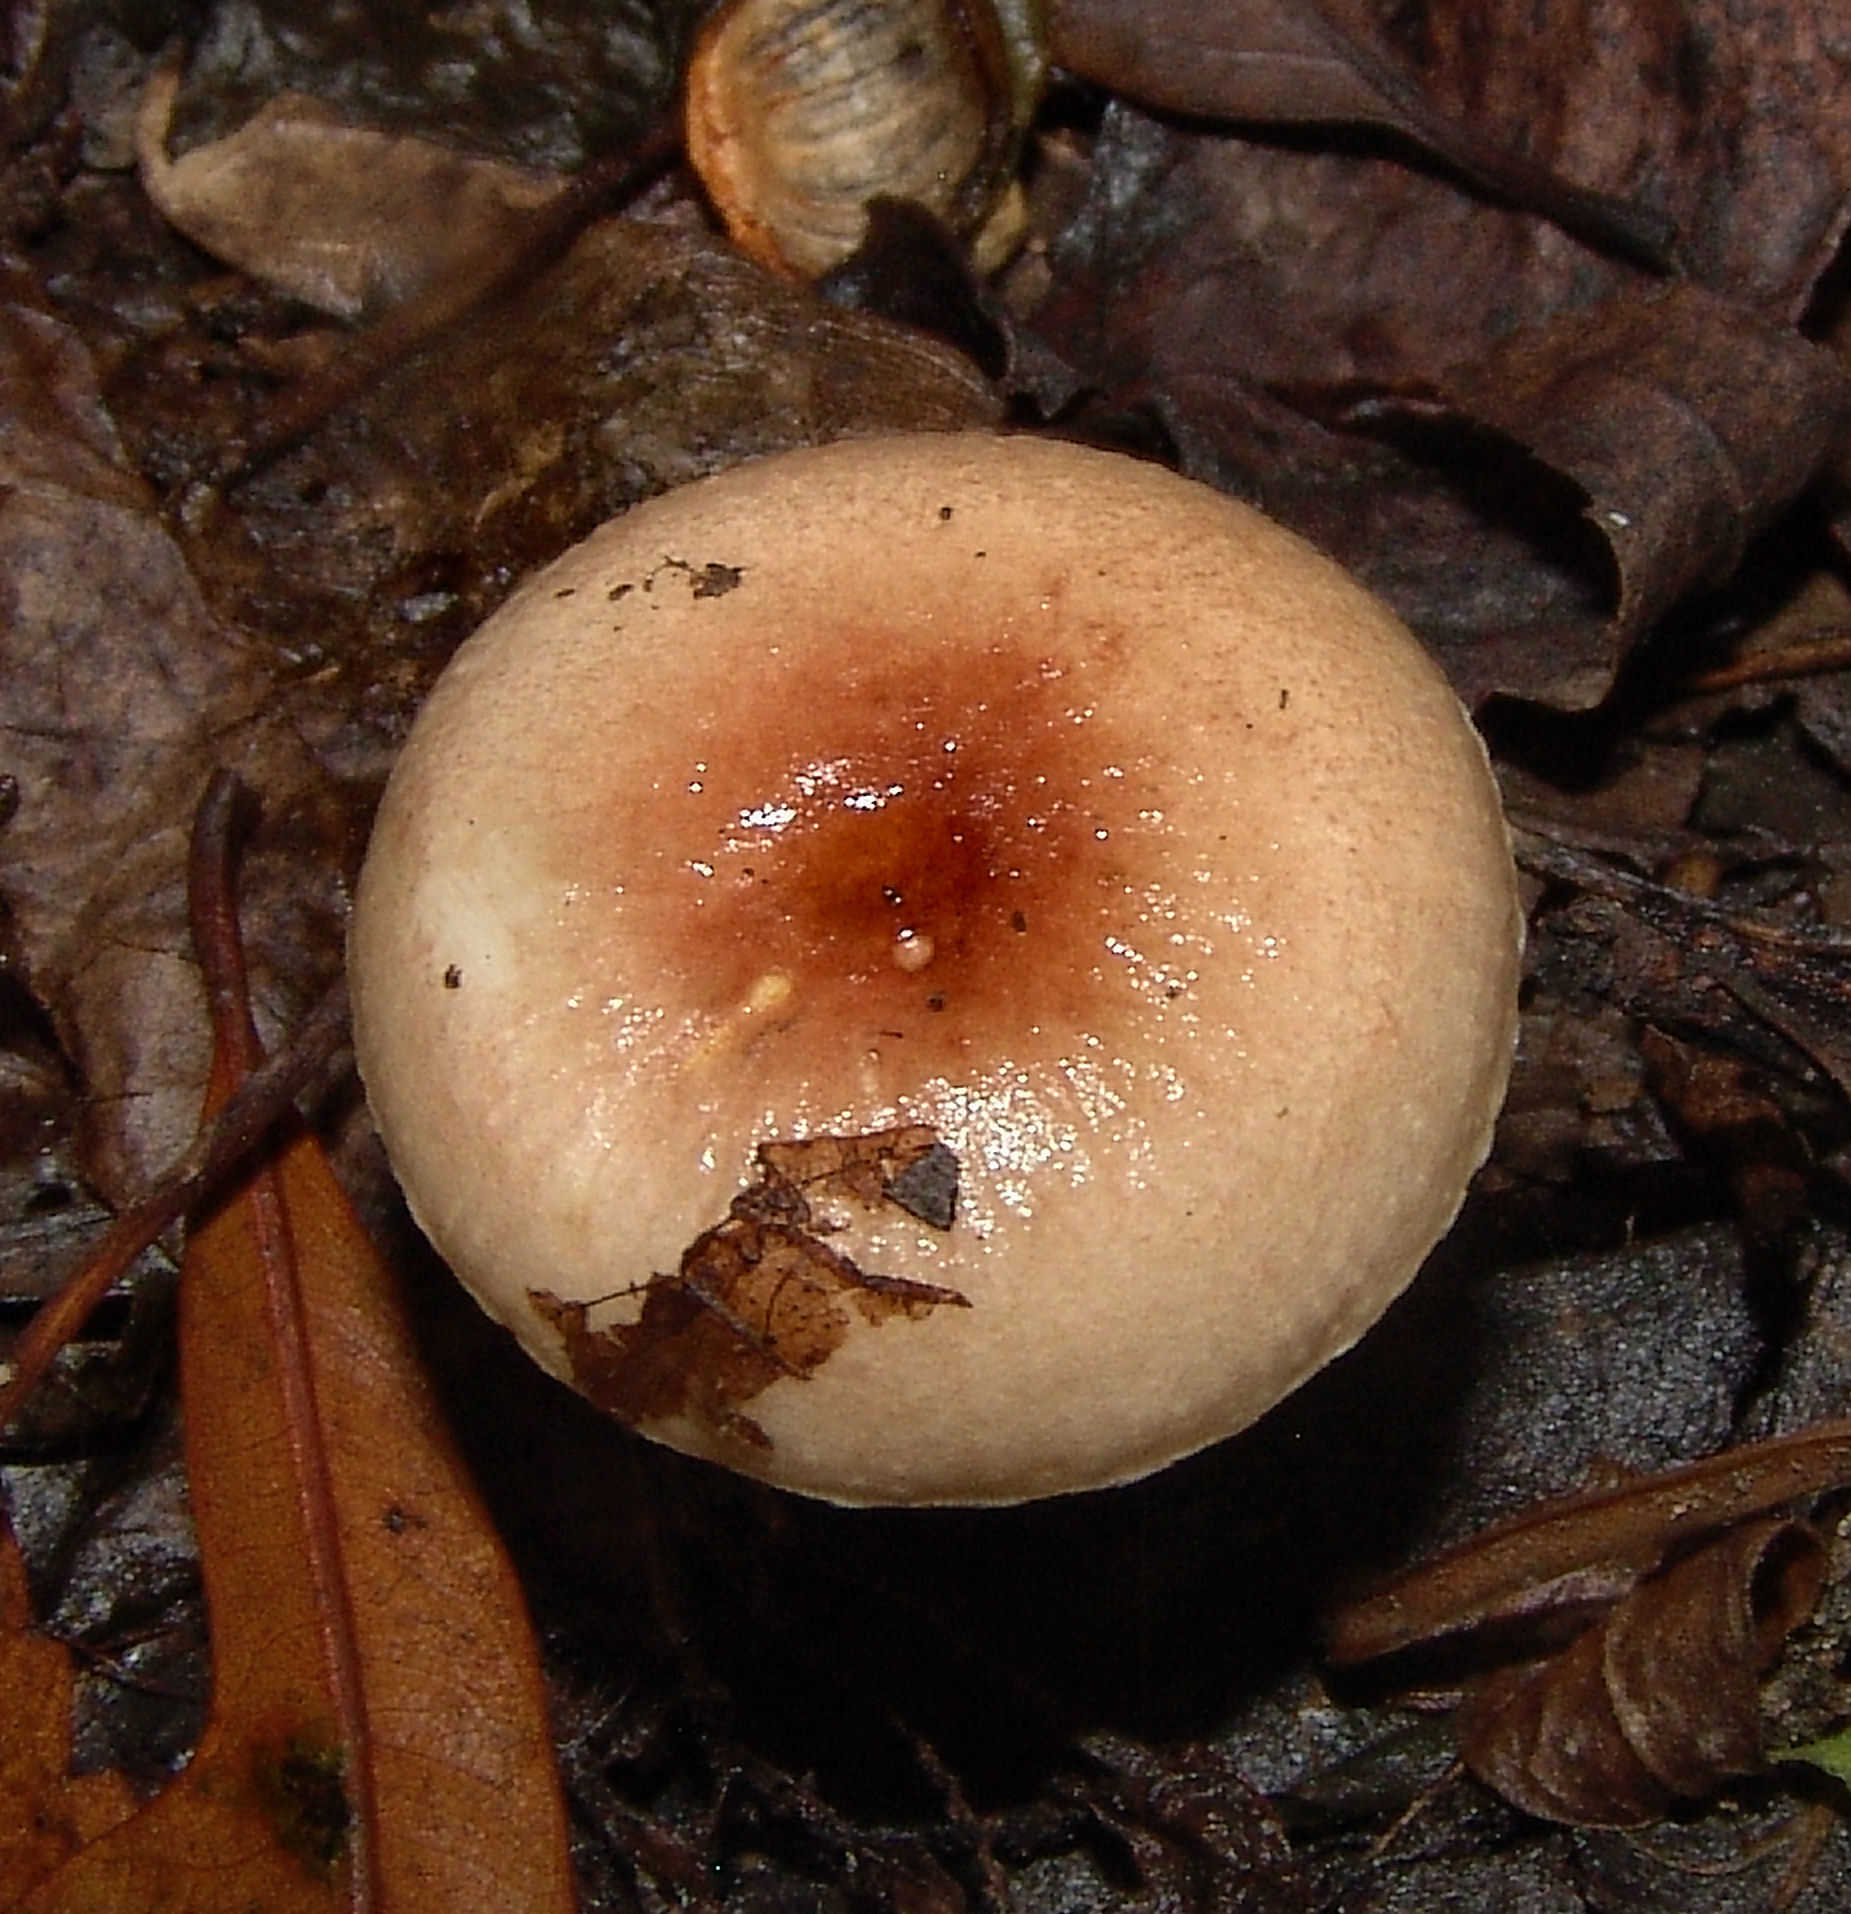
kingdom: Fungi
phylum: Basidiomycota
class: Agaricomycetes
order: Russulales
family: Russulaceae
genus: Russula
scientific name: Russula
